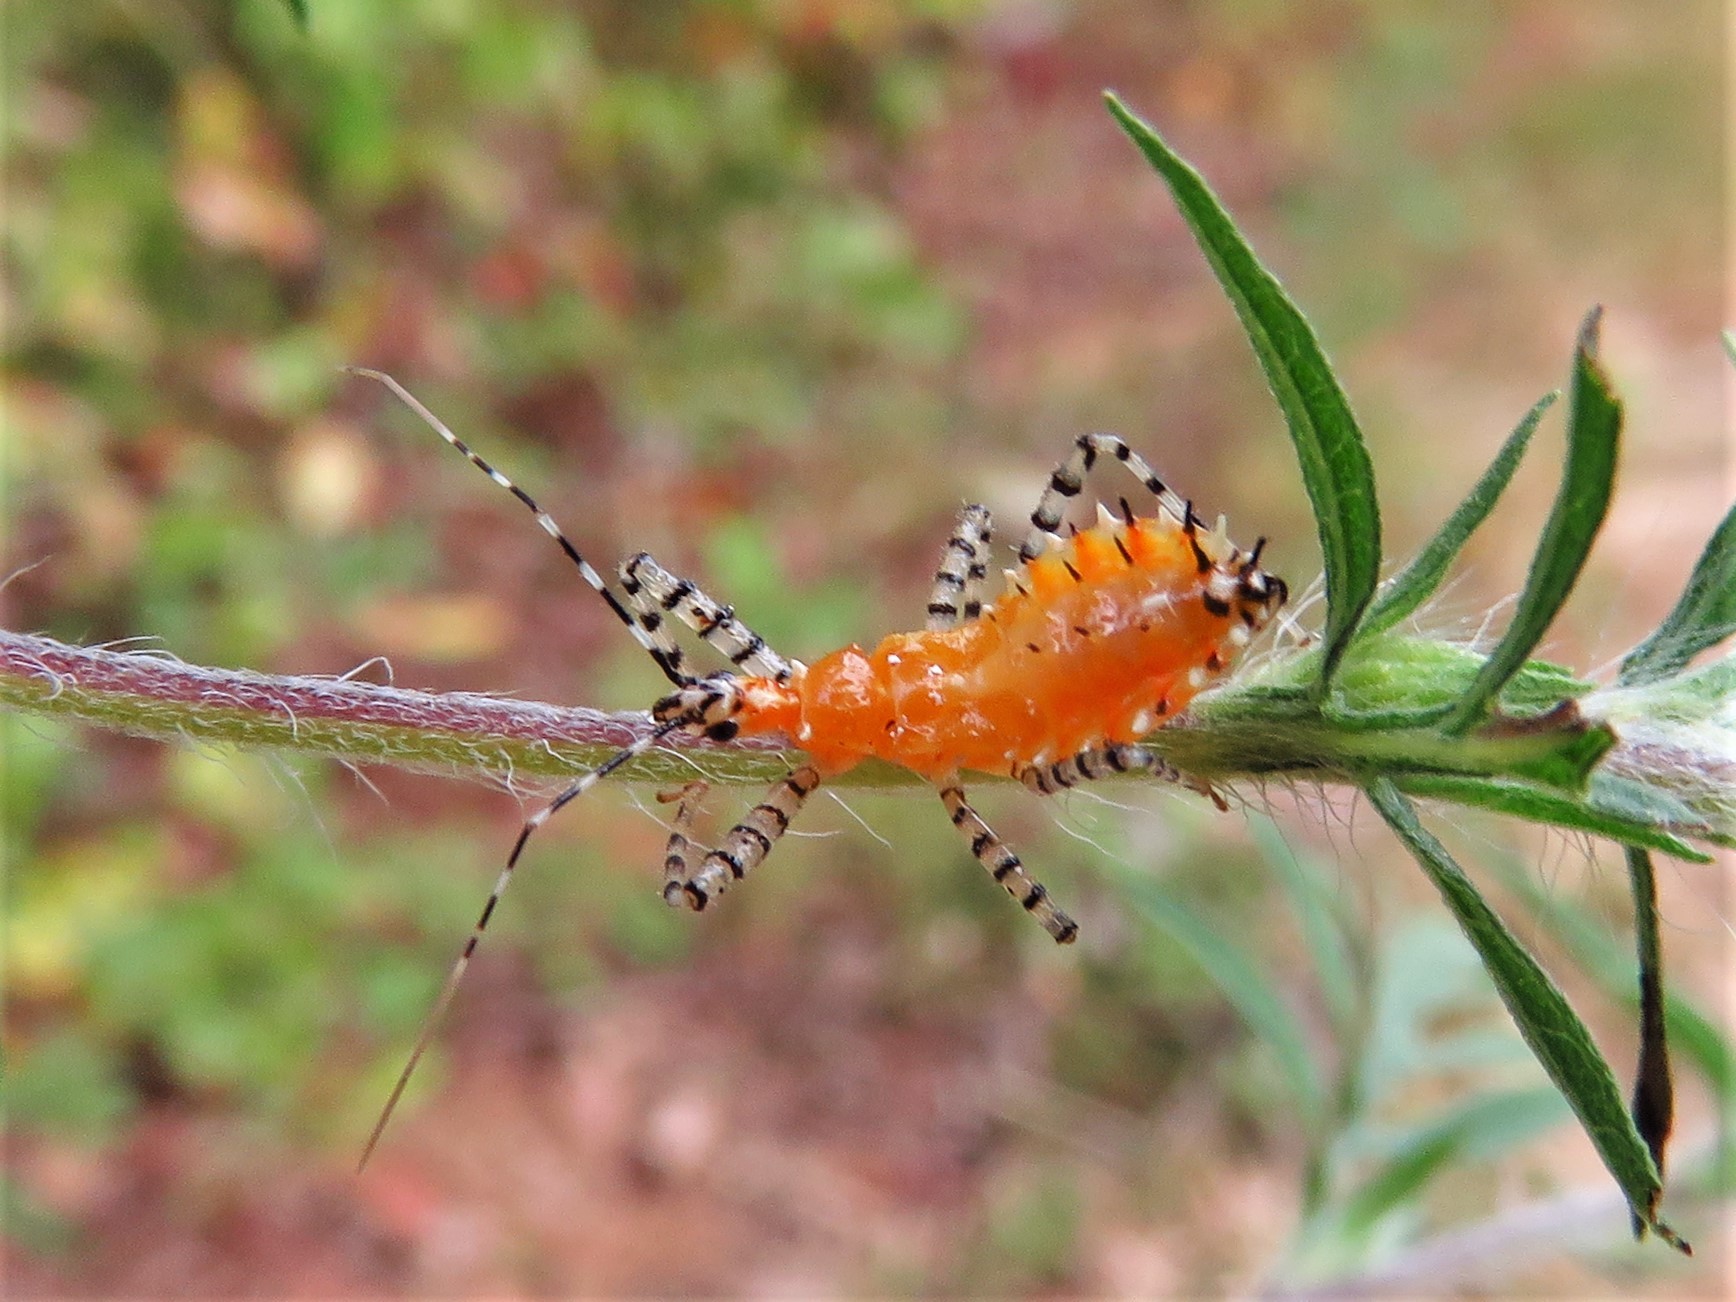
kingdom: Animalia
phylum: Arthropoda
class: Insecta
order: Hemiptera
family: Reduviidae
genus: Pselliopus
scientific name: Pselliopus cinctus
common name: Ringed assassin bug
